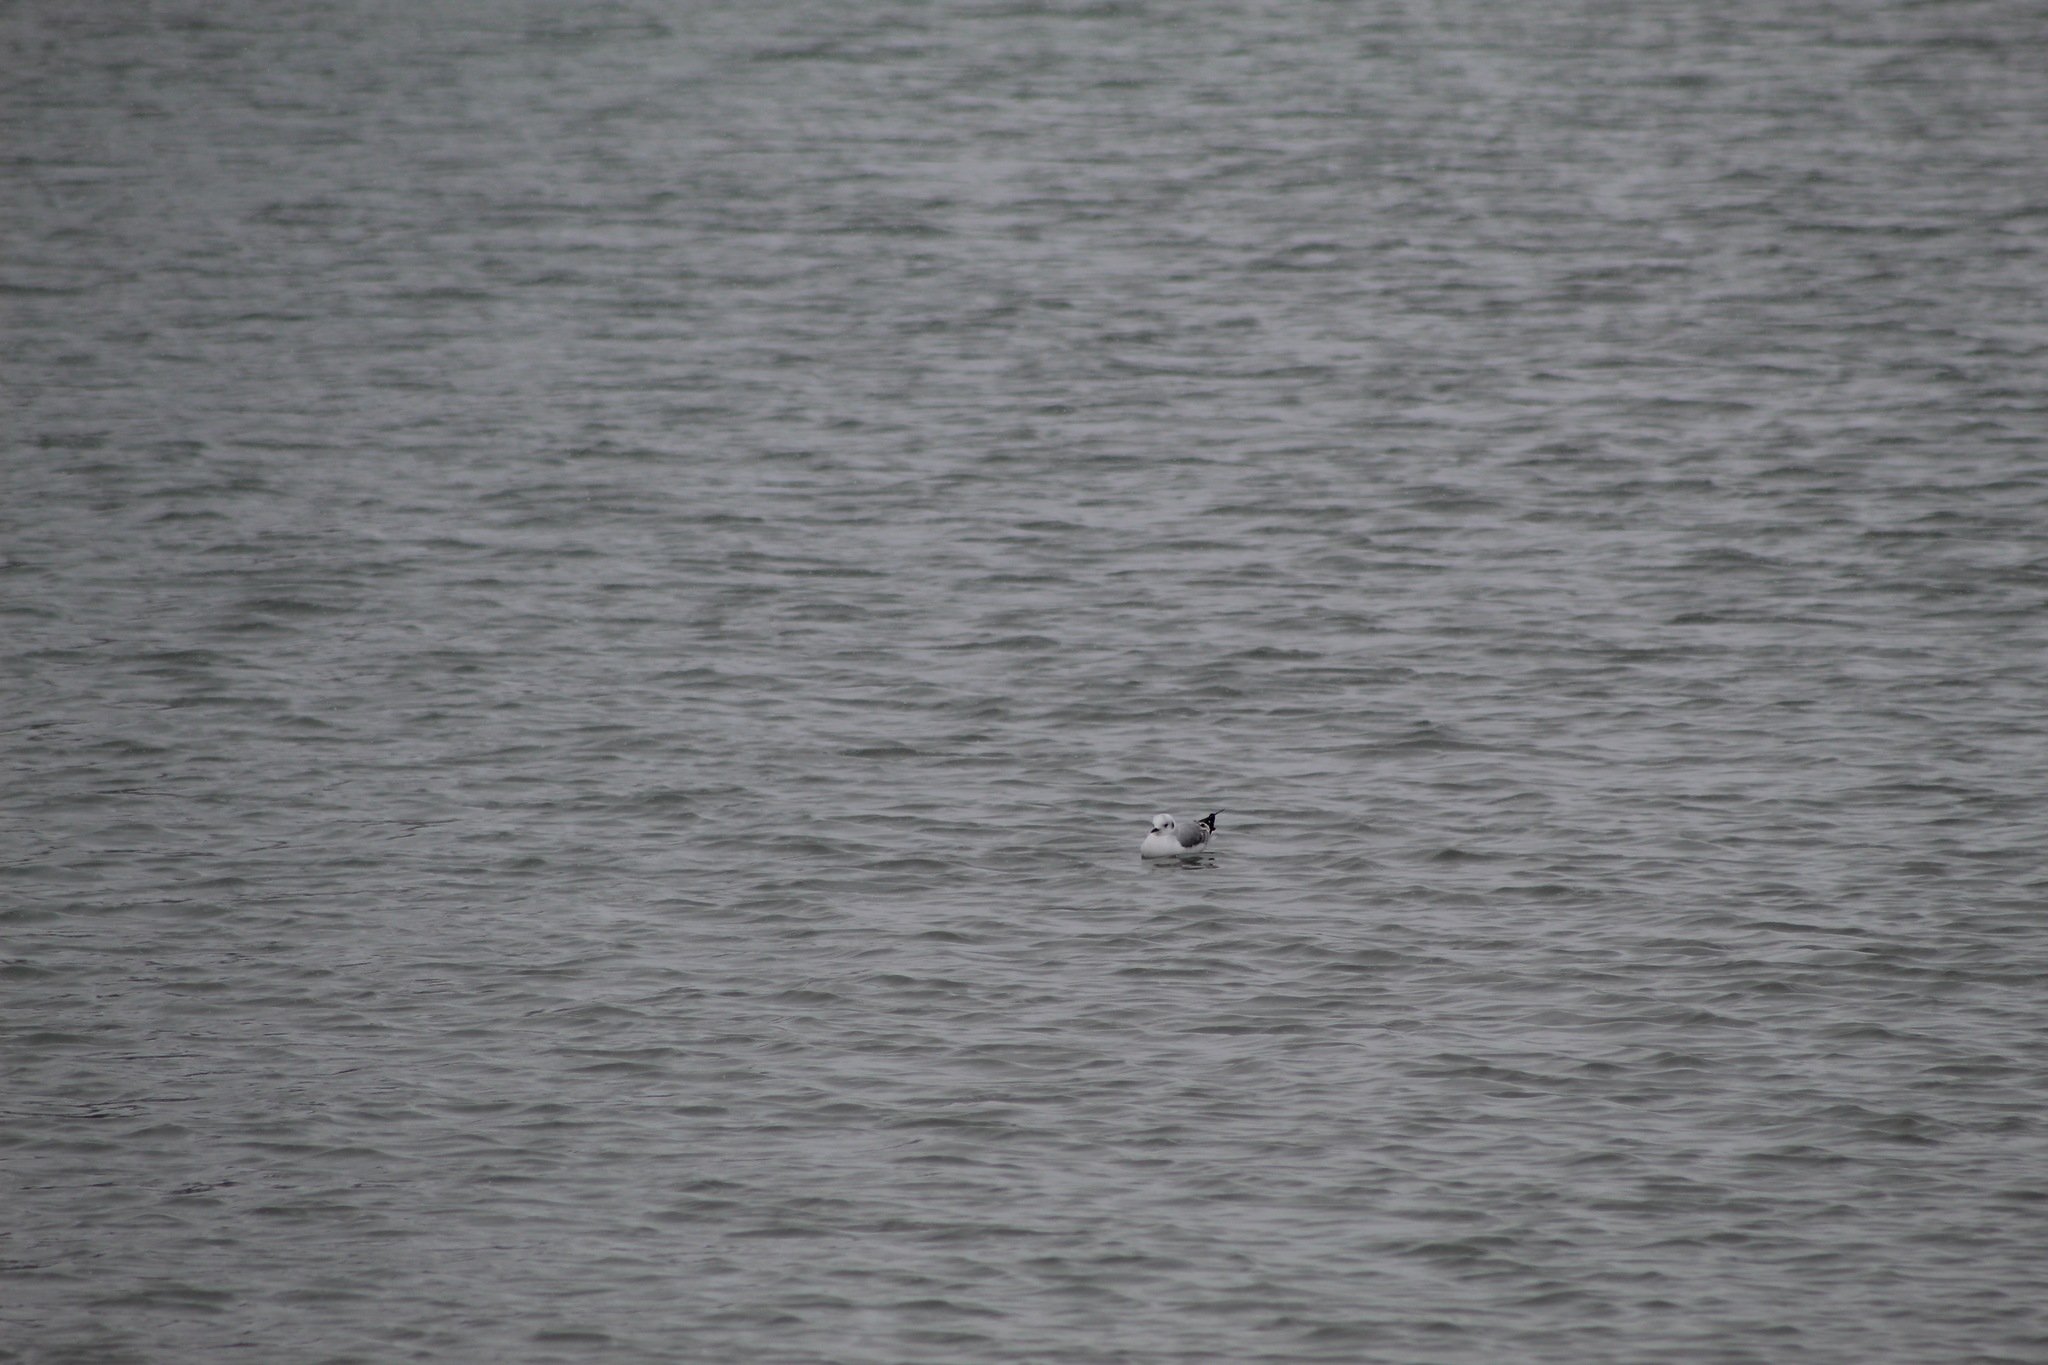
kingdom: Animalia
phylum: Chordata
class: Aves
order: Charadriiformes
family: Laridae
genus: Chroicocephalus
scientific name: Chroicocephalus philadelphia
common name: Bonaparte's gull
